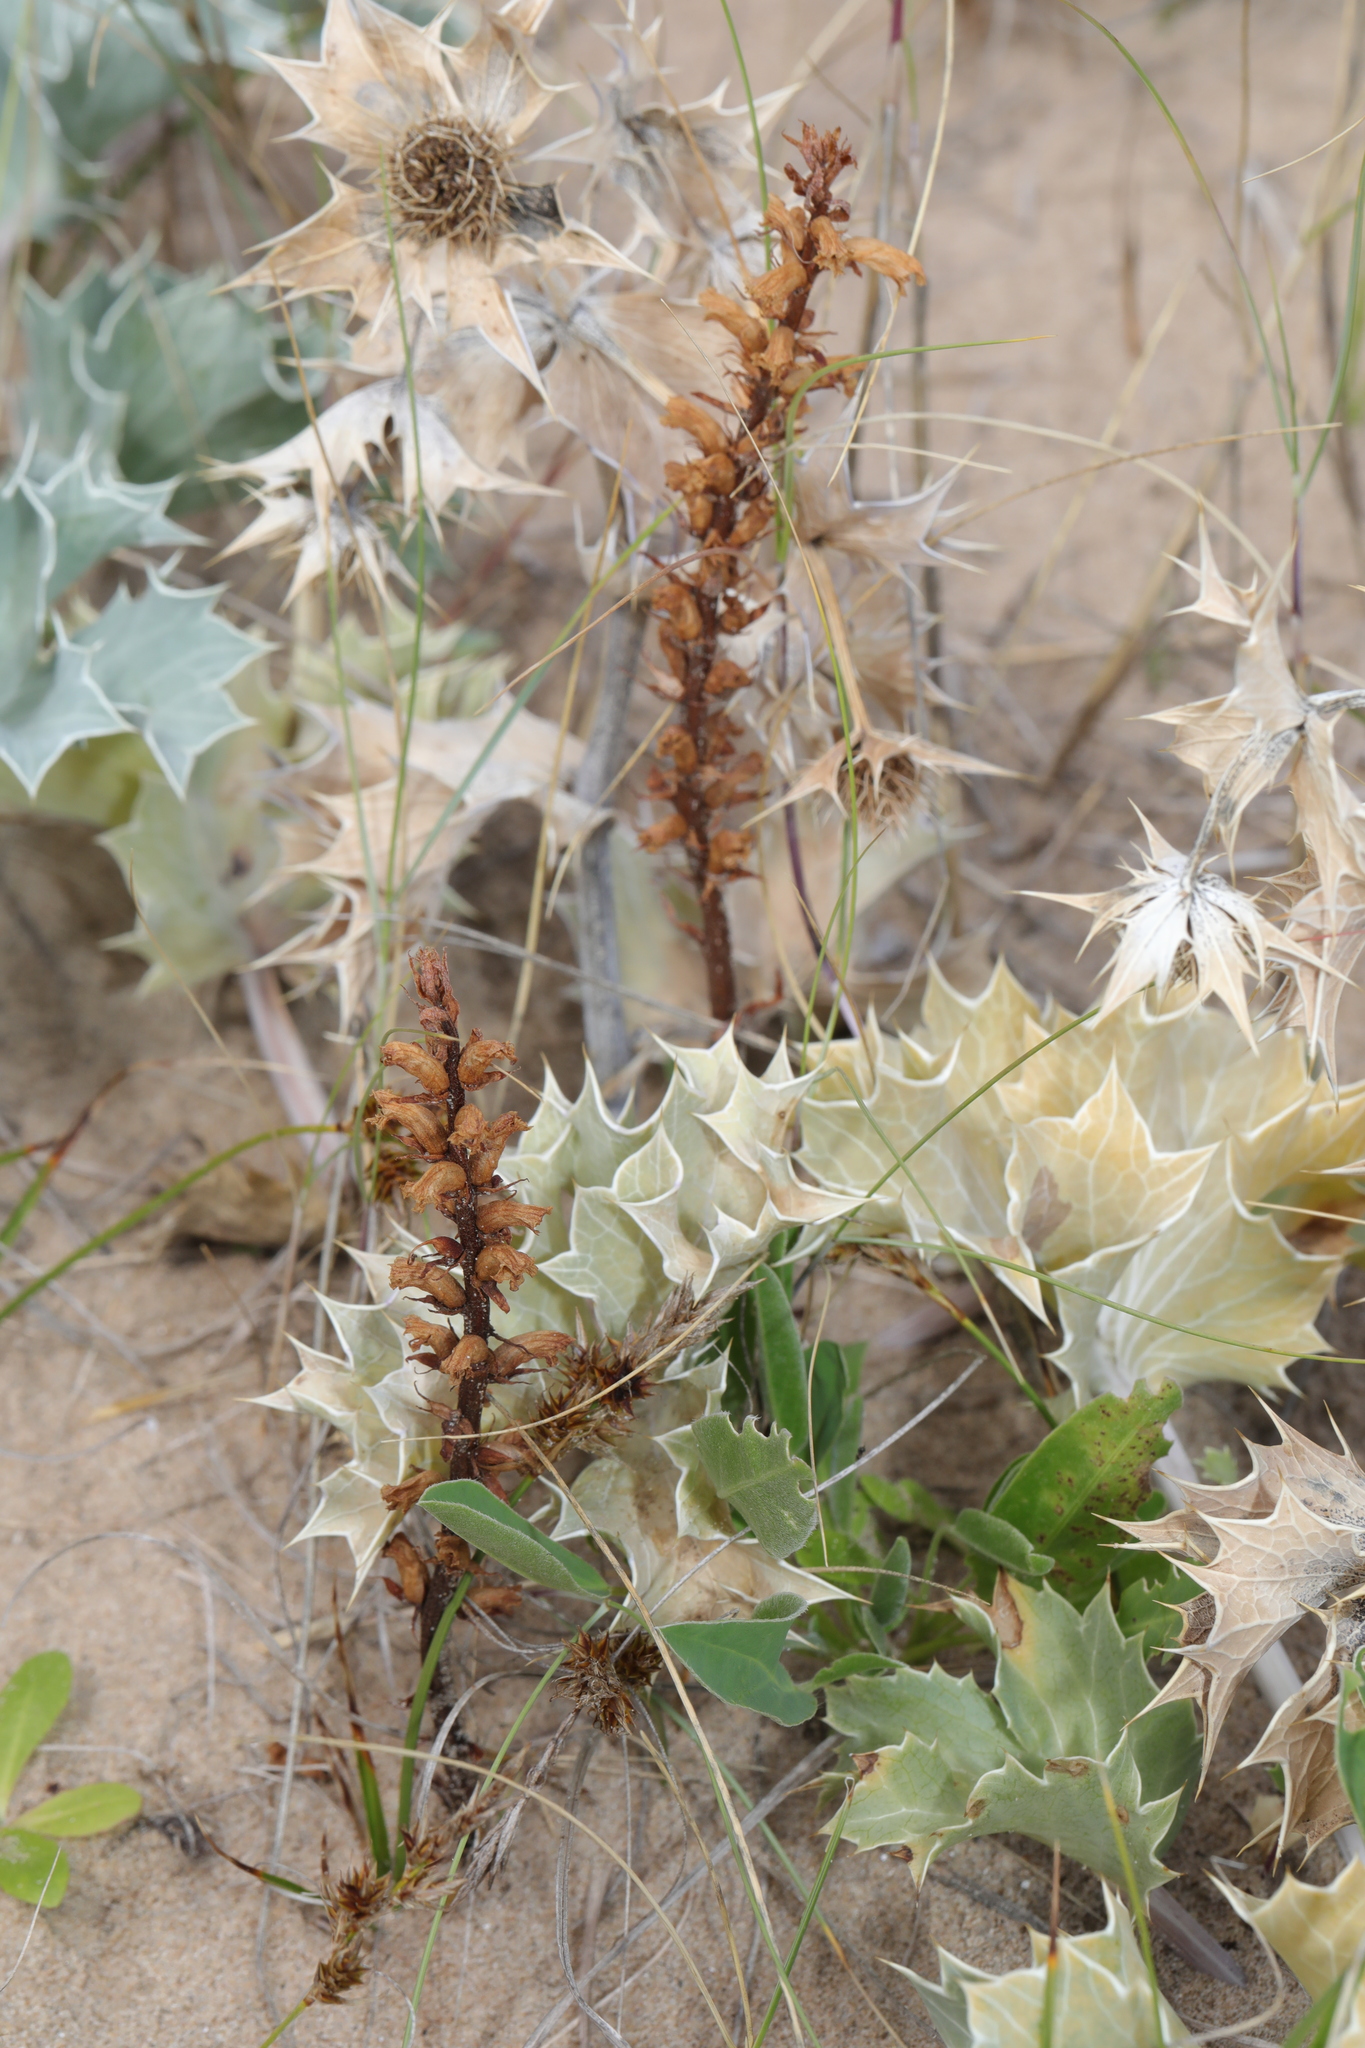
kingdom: Plantae
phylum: Tracheophyta
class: Magnoliopsida
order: Lamiales
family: Orobanchaceae
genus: Orobanche
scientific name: Orobanche minor
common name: Common broomrape
